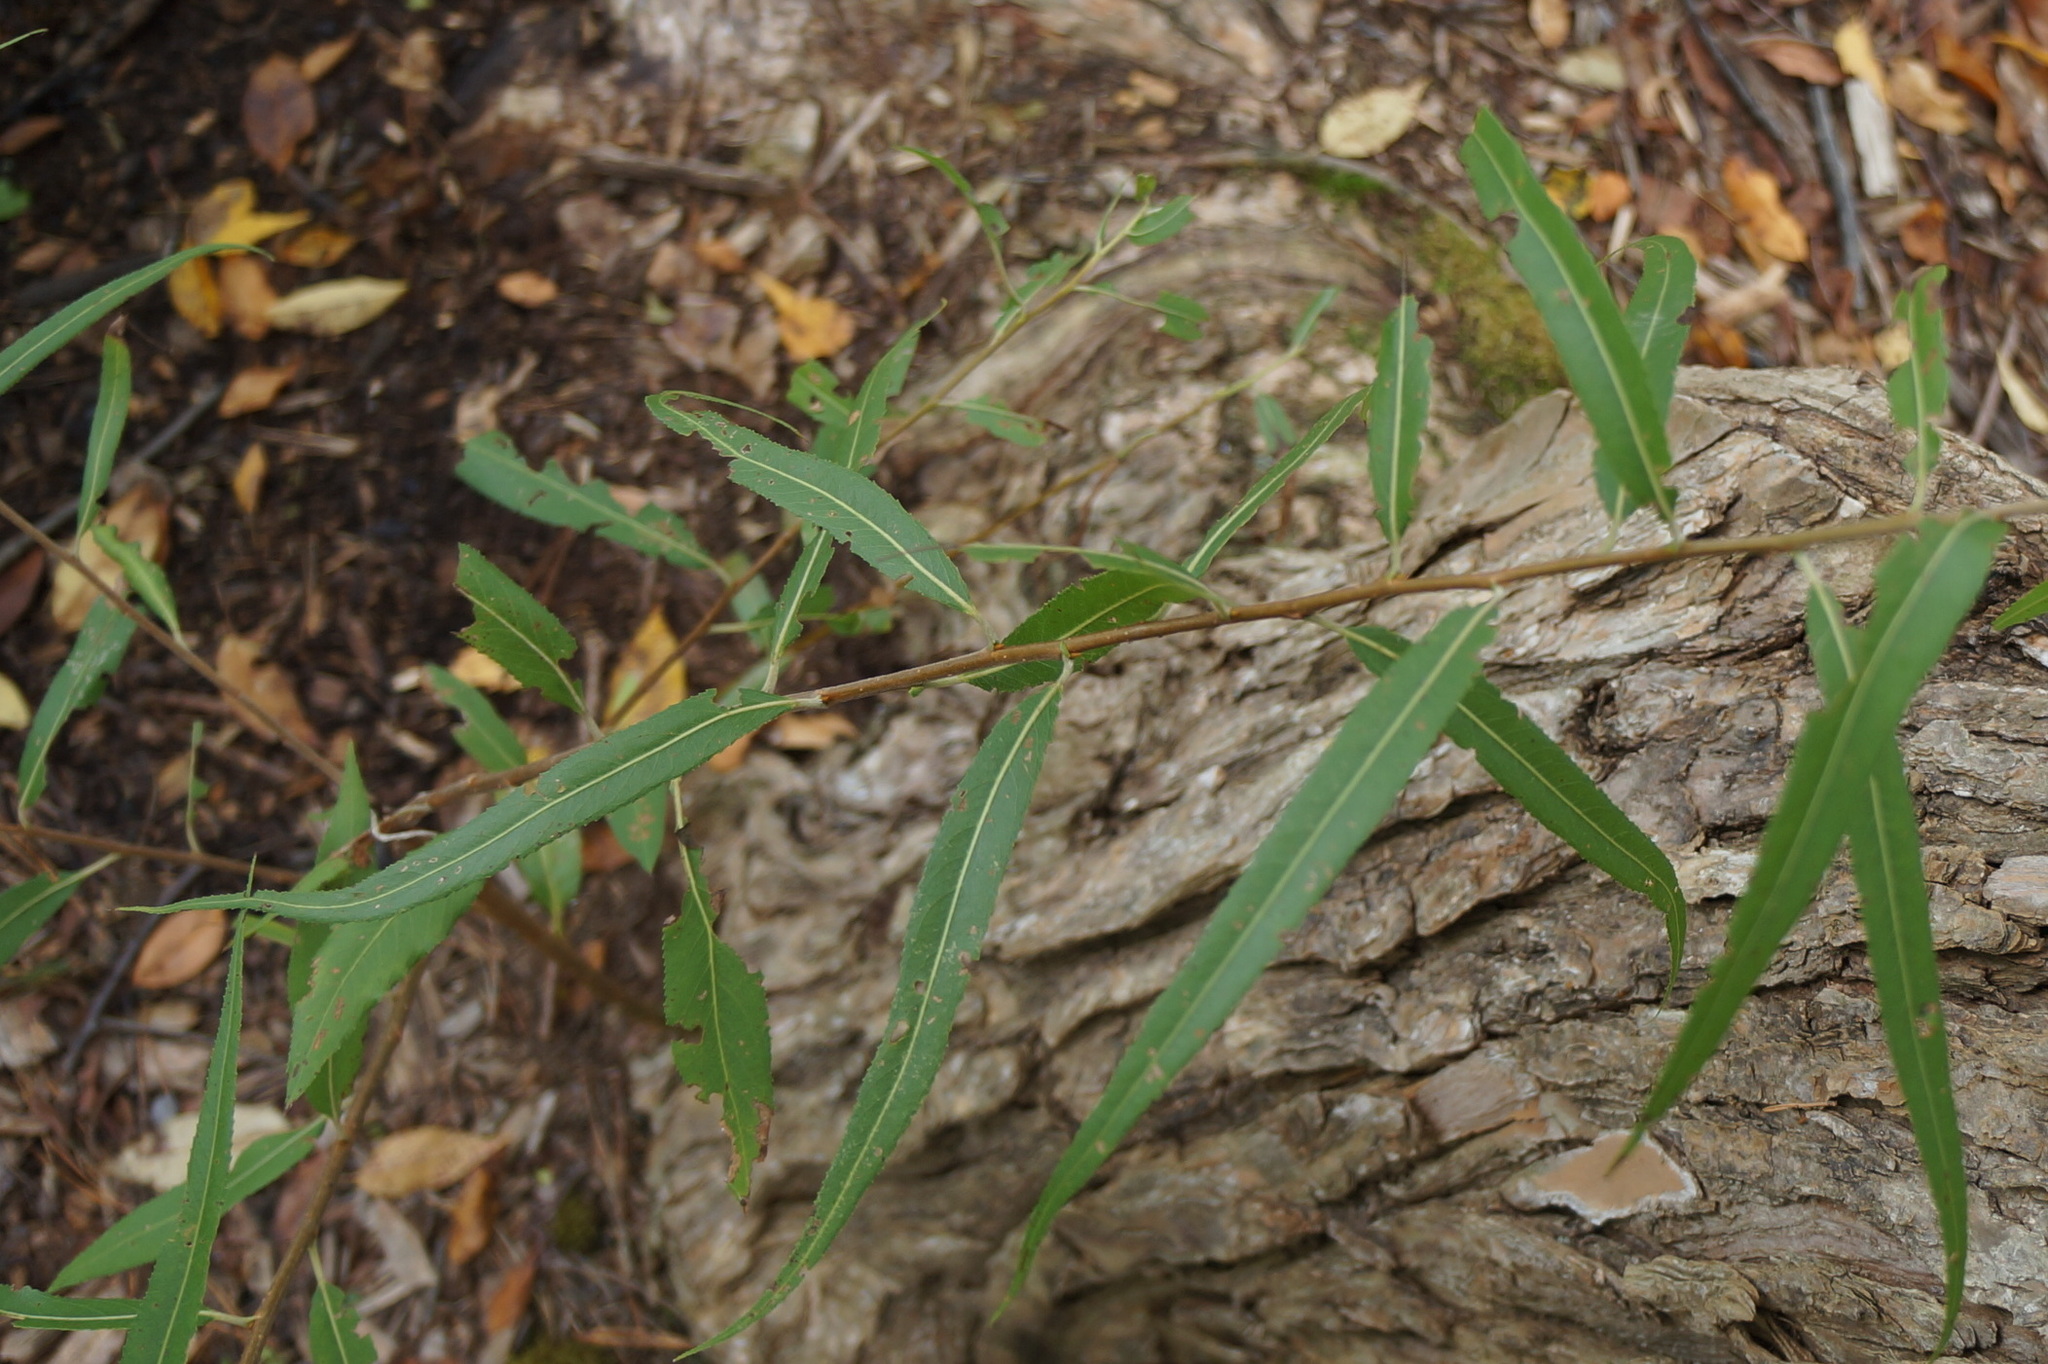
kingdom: Plantae
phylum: Tracheophyta
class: Magnoliopsida
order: Malpighiales
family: Salicaceae
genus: Salix
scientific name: Salix nigra
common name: Black willow
